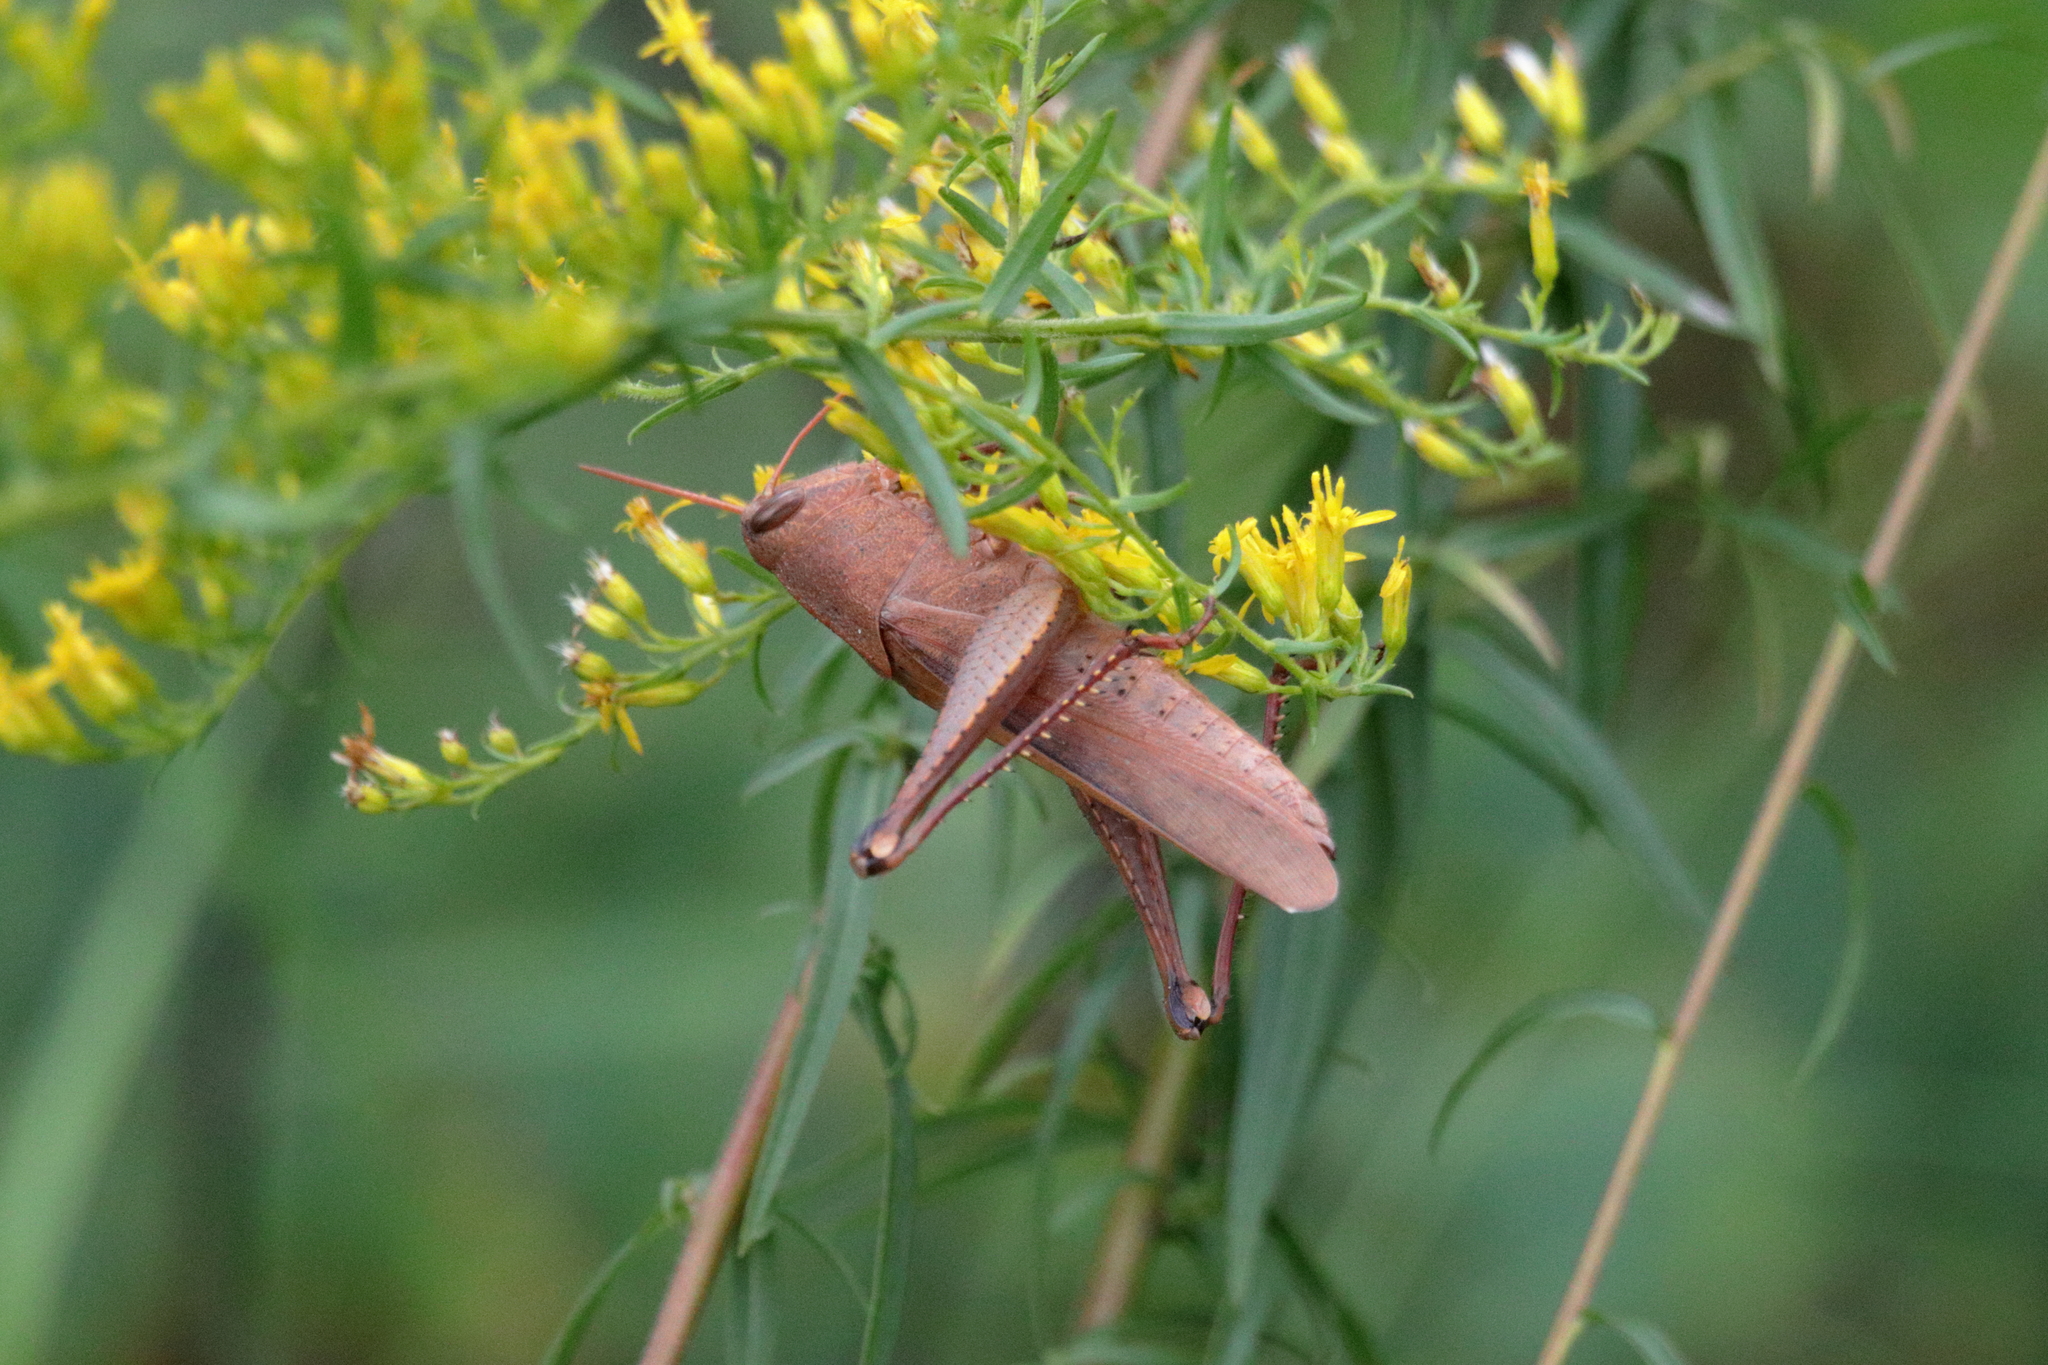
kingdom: Animalia
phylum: Arthropoda
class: Insecta
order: Orthoptera
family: Acrididae
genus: Schistocerca
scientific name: Schistocerca damnifica
